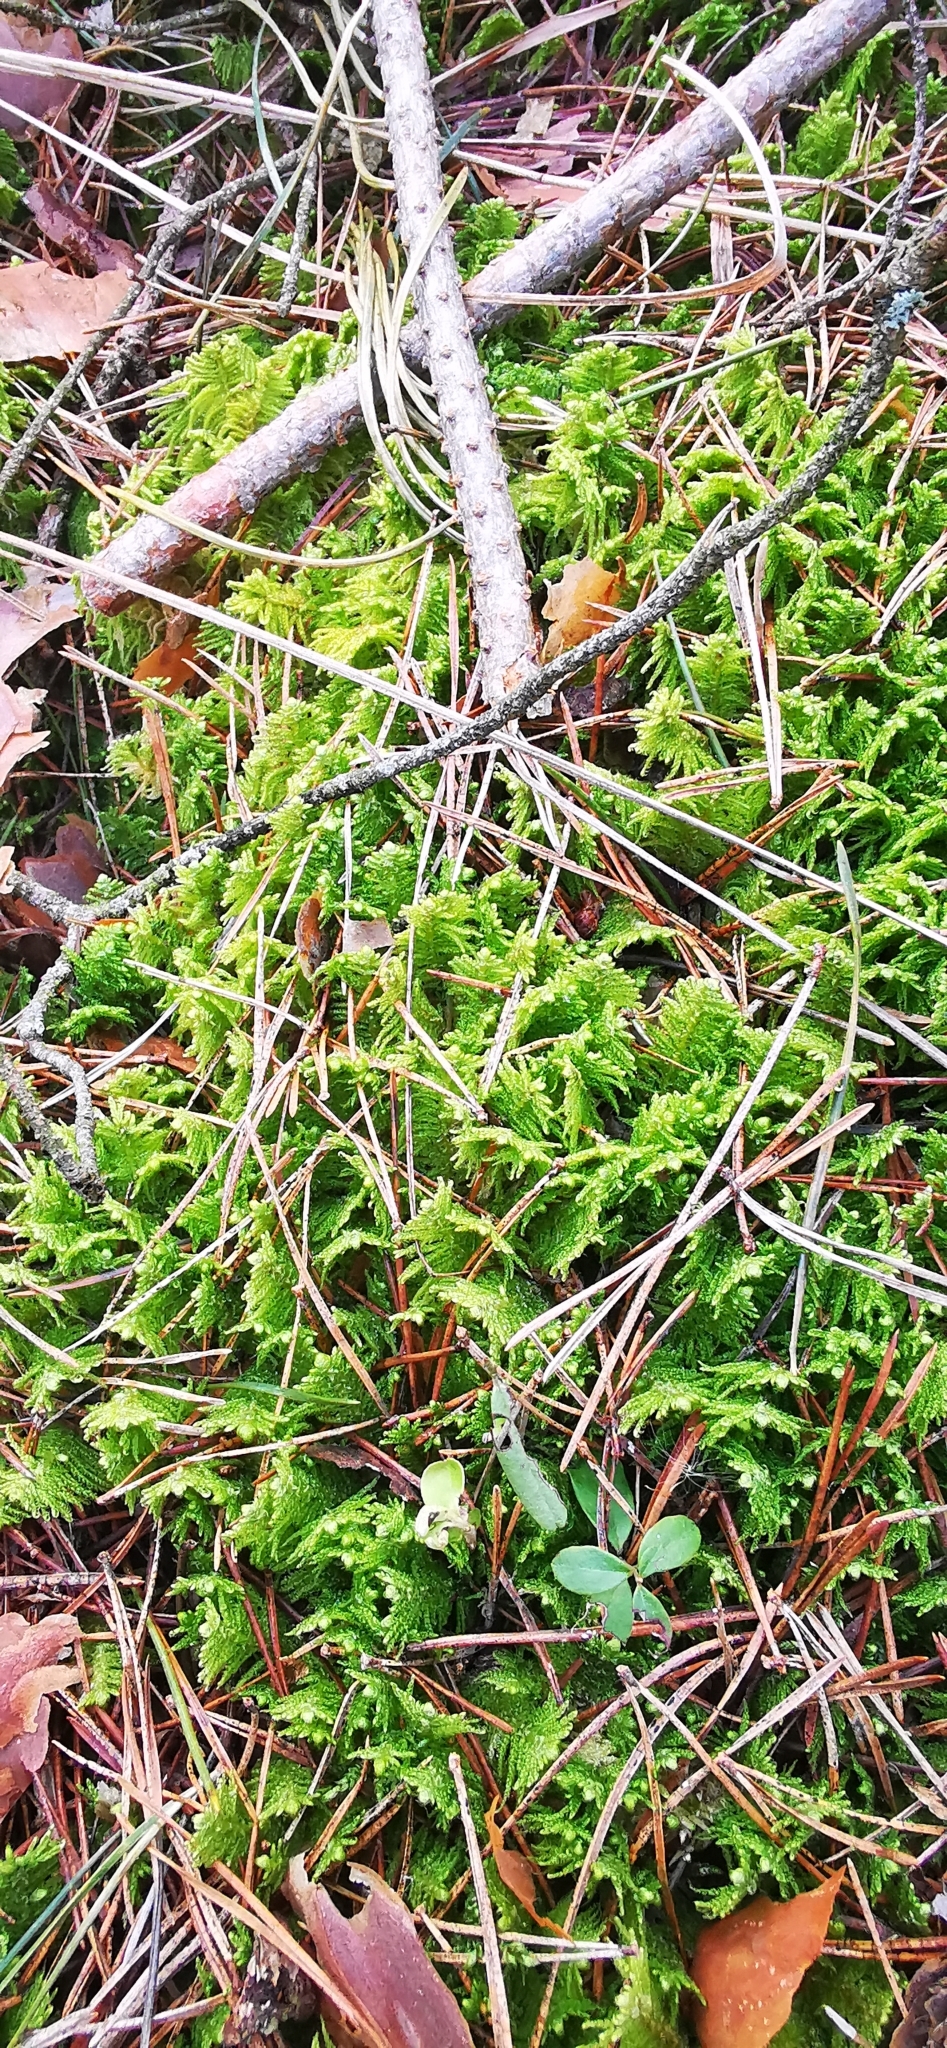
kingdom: Plantae
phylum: Bryophyta
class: Bryopsida
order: Hypnales
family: Pylaisiaceae
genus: Ptilium
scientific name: Ptilium crista-castrensis
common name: Knight's plume moss
